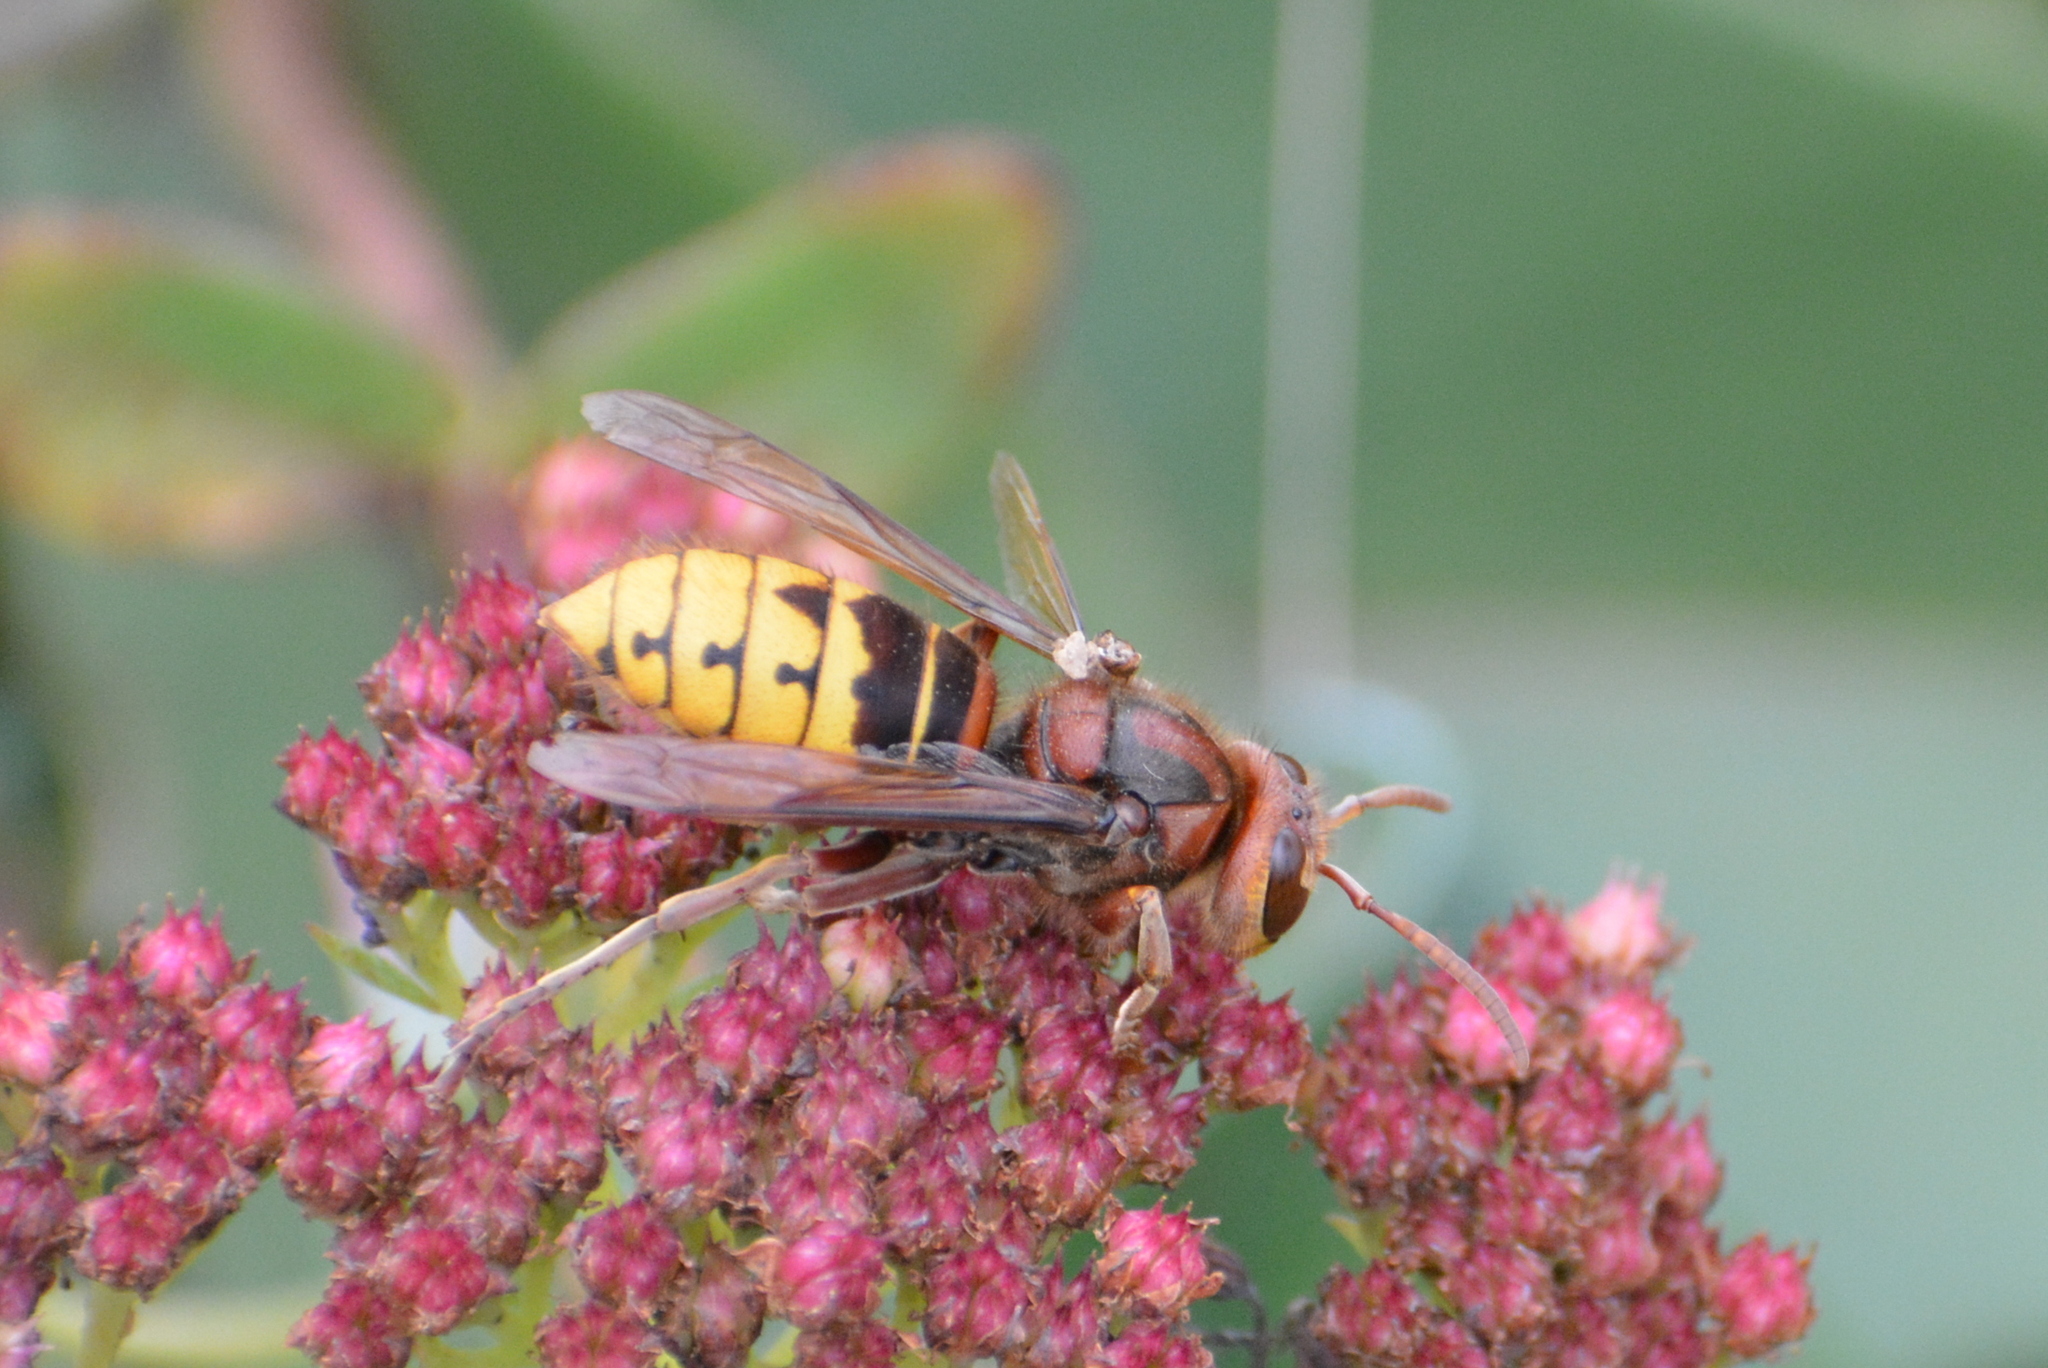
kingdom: Animalia
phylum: Arthropoda
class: Insecta
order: Hymenoptera
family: Vespidae
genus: Vespa
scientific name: Vespa crabro
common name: Hornet
